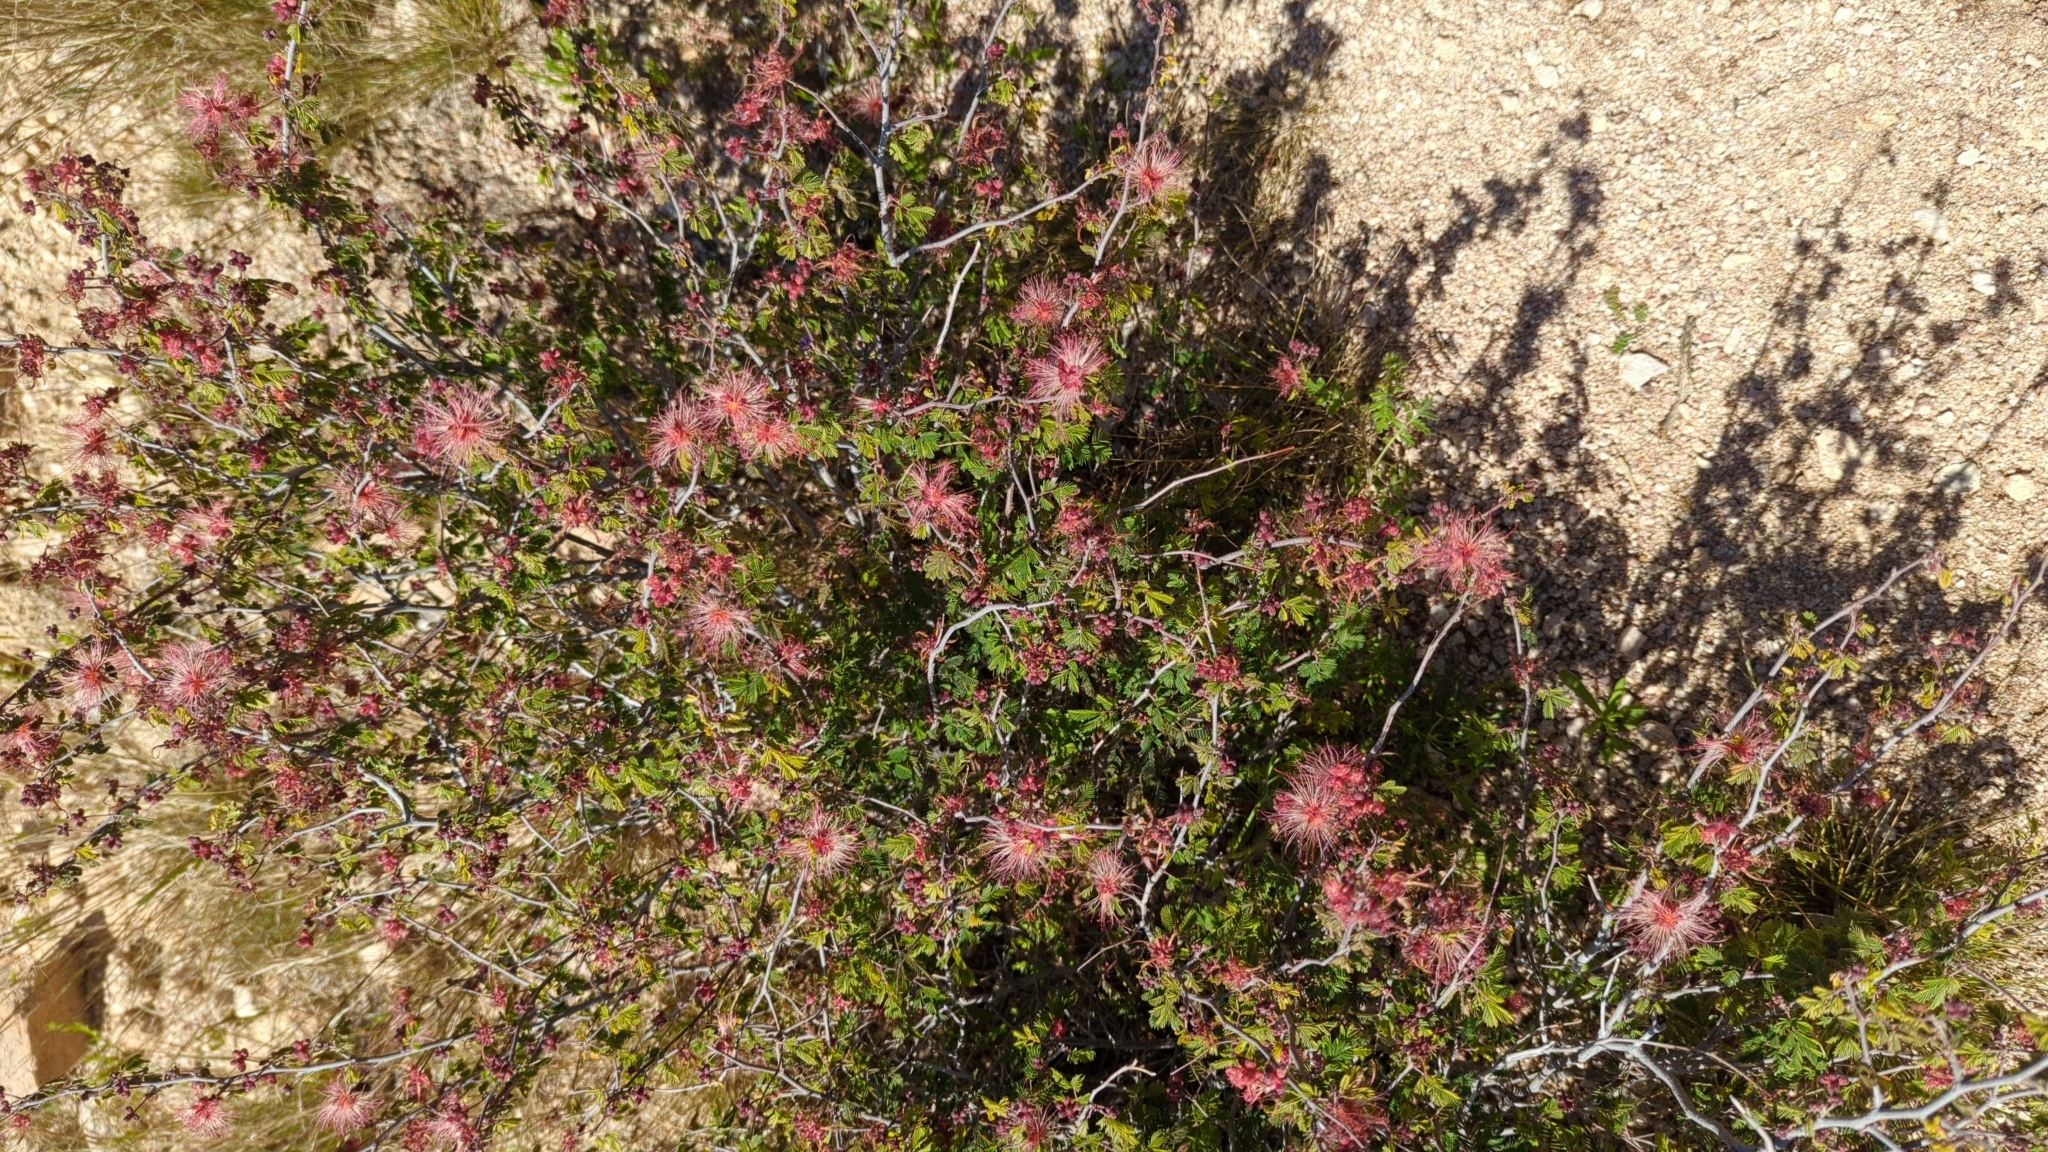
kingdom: Plantae
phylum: Tracheophyta
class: Magnoliopsida
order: Fabales
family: Fabaceae
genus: Calliandra
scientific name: Calliandra eriophylla
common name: Fairy-duster
